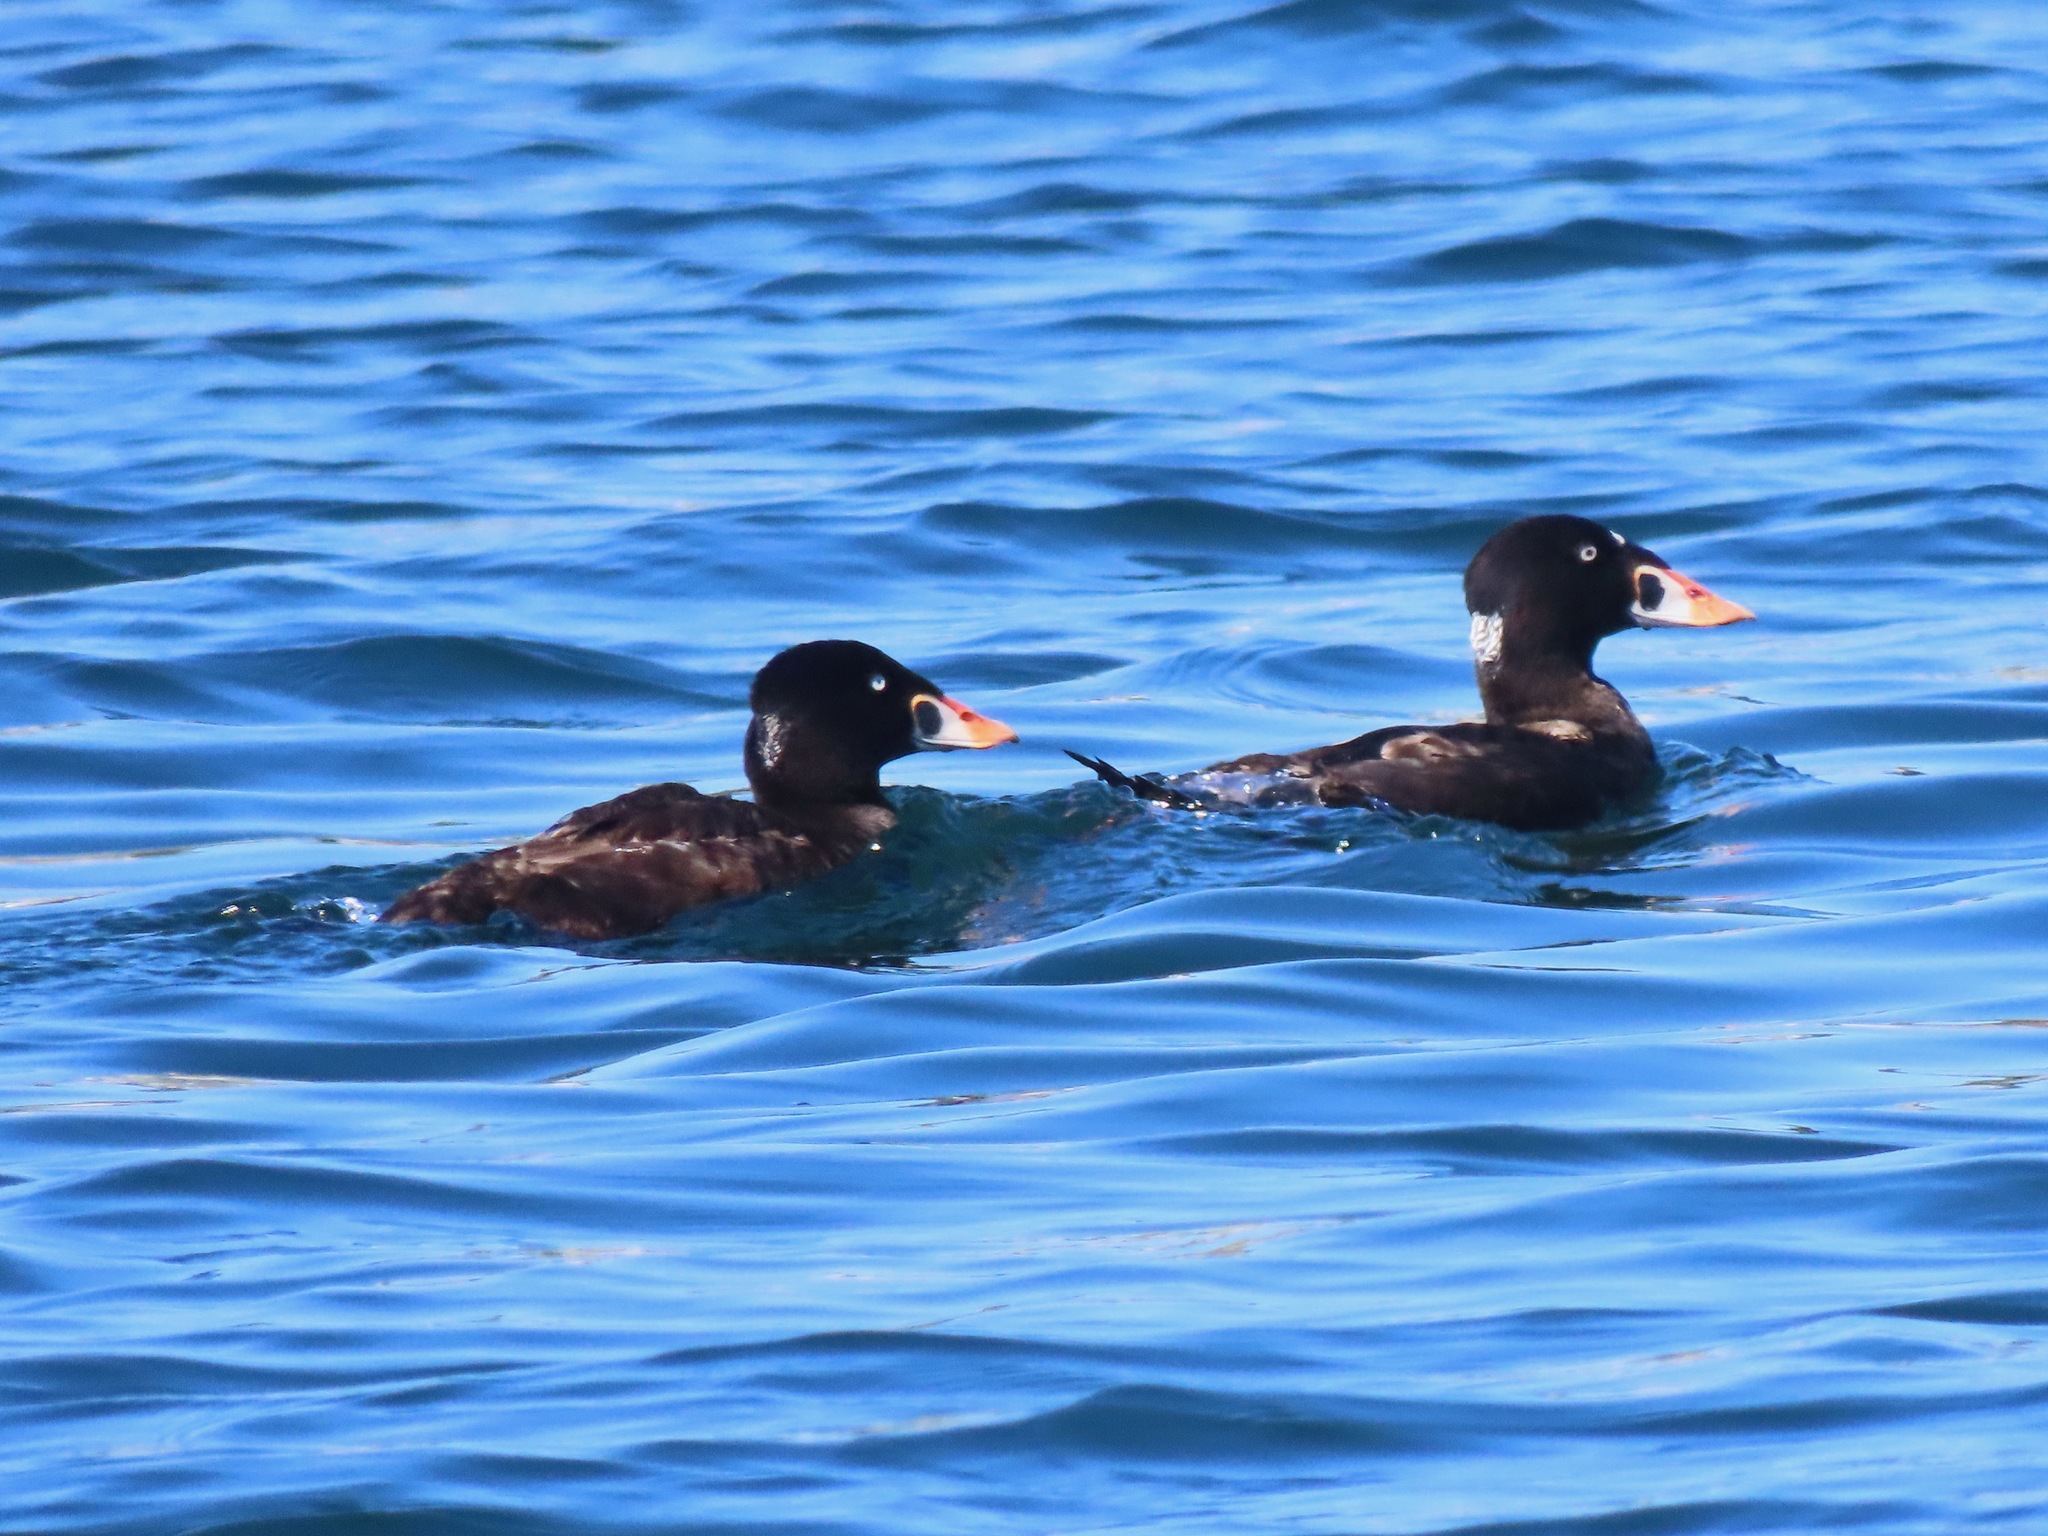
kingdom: Animalia
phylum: Chordata
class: Aves
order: Anseriformes
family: Anatidae
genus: Melanitta
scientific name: Melanitta perspicillata
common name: Surf scoter
